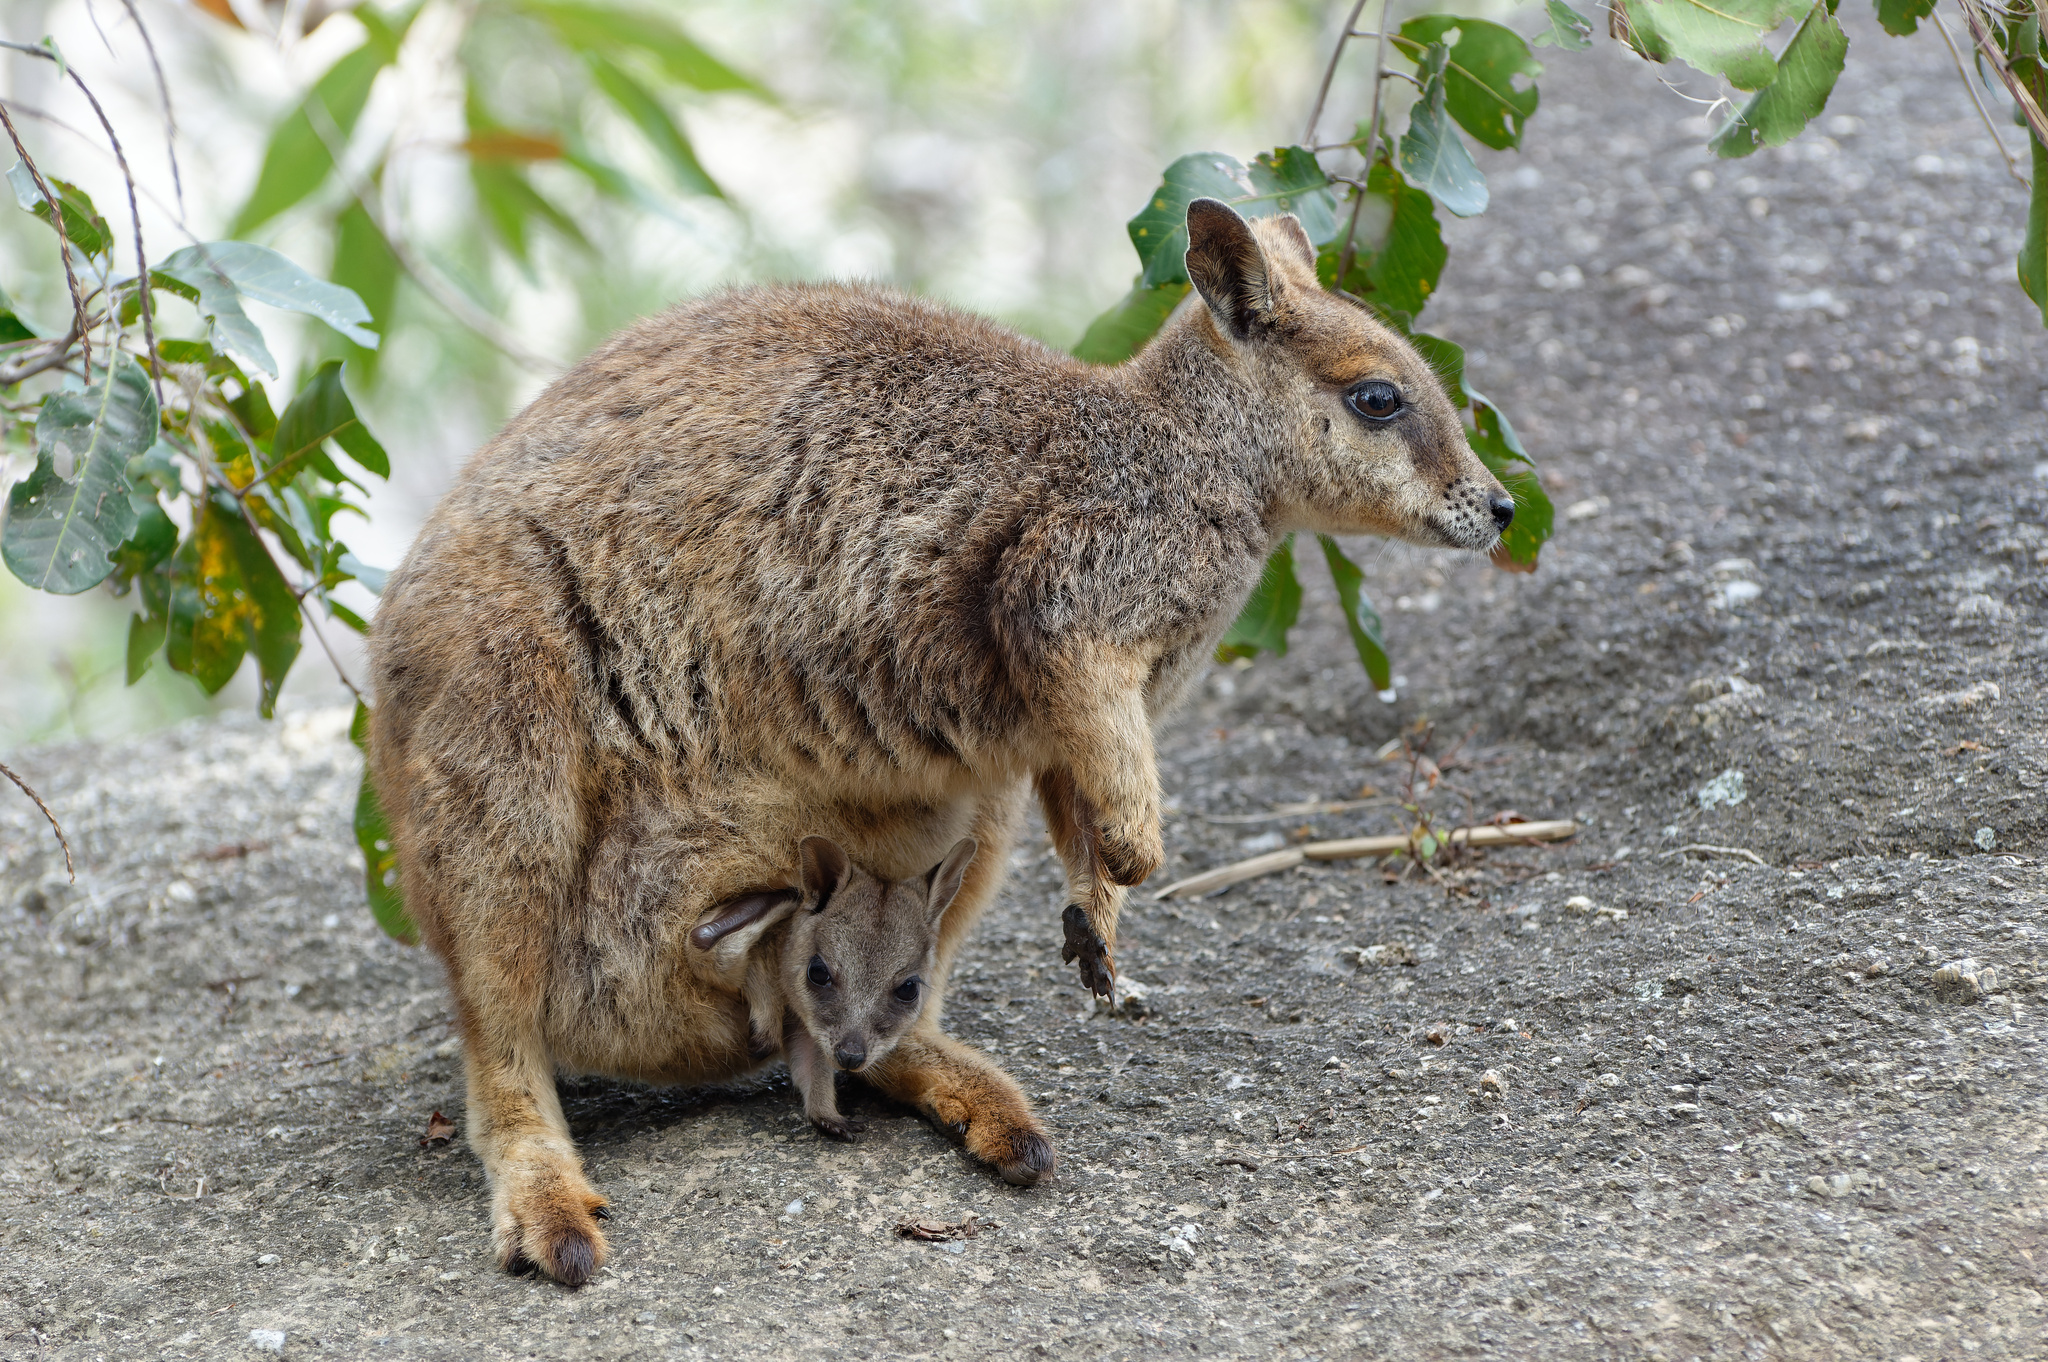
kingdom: Animalia
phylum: Chordata
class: Mammalia
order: Diprotodontia
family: Macropodidae
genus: Petrogale
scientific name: Petrogale mareeba
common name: Mareeba rock-wallaby
